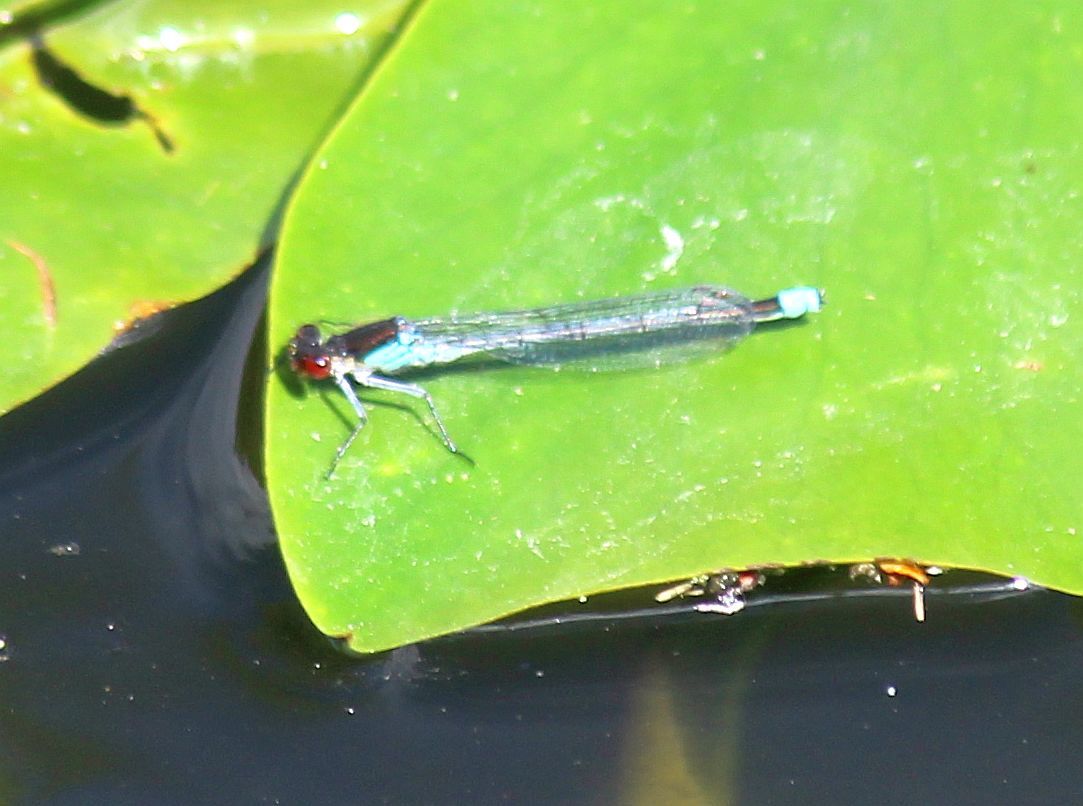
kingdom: Animalia
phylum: Arthropoda
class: Insecta
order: Odonata
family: Coenagrionidae
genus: Erythromma
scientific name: Erythromma najas
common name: Red-eyed damselfly
